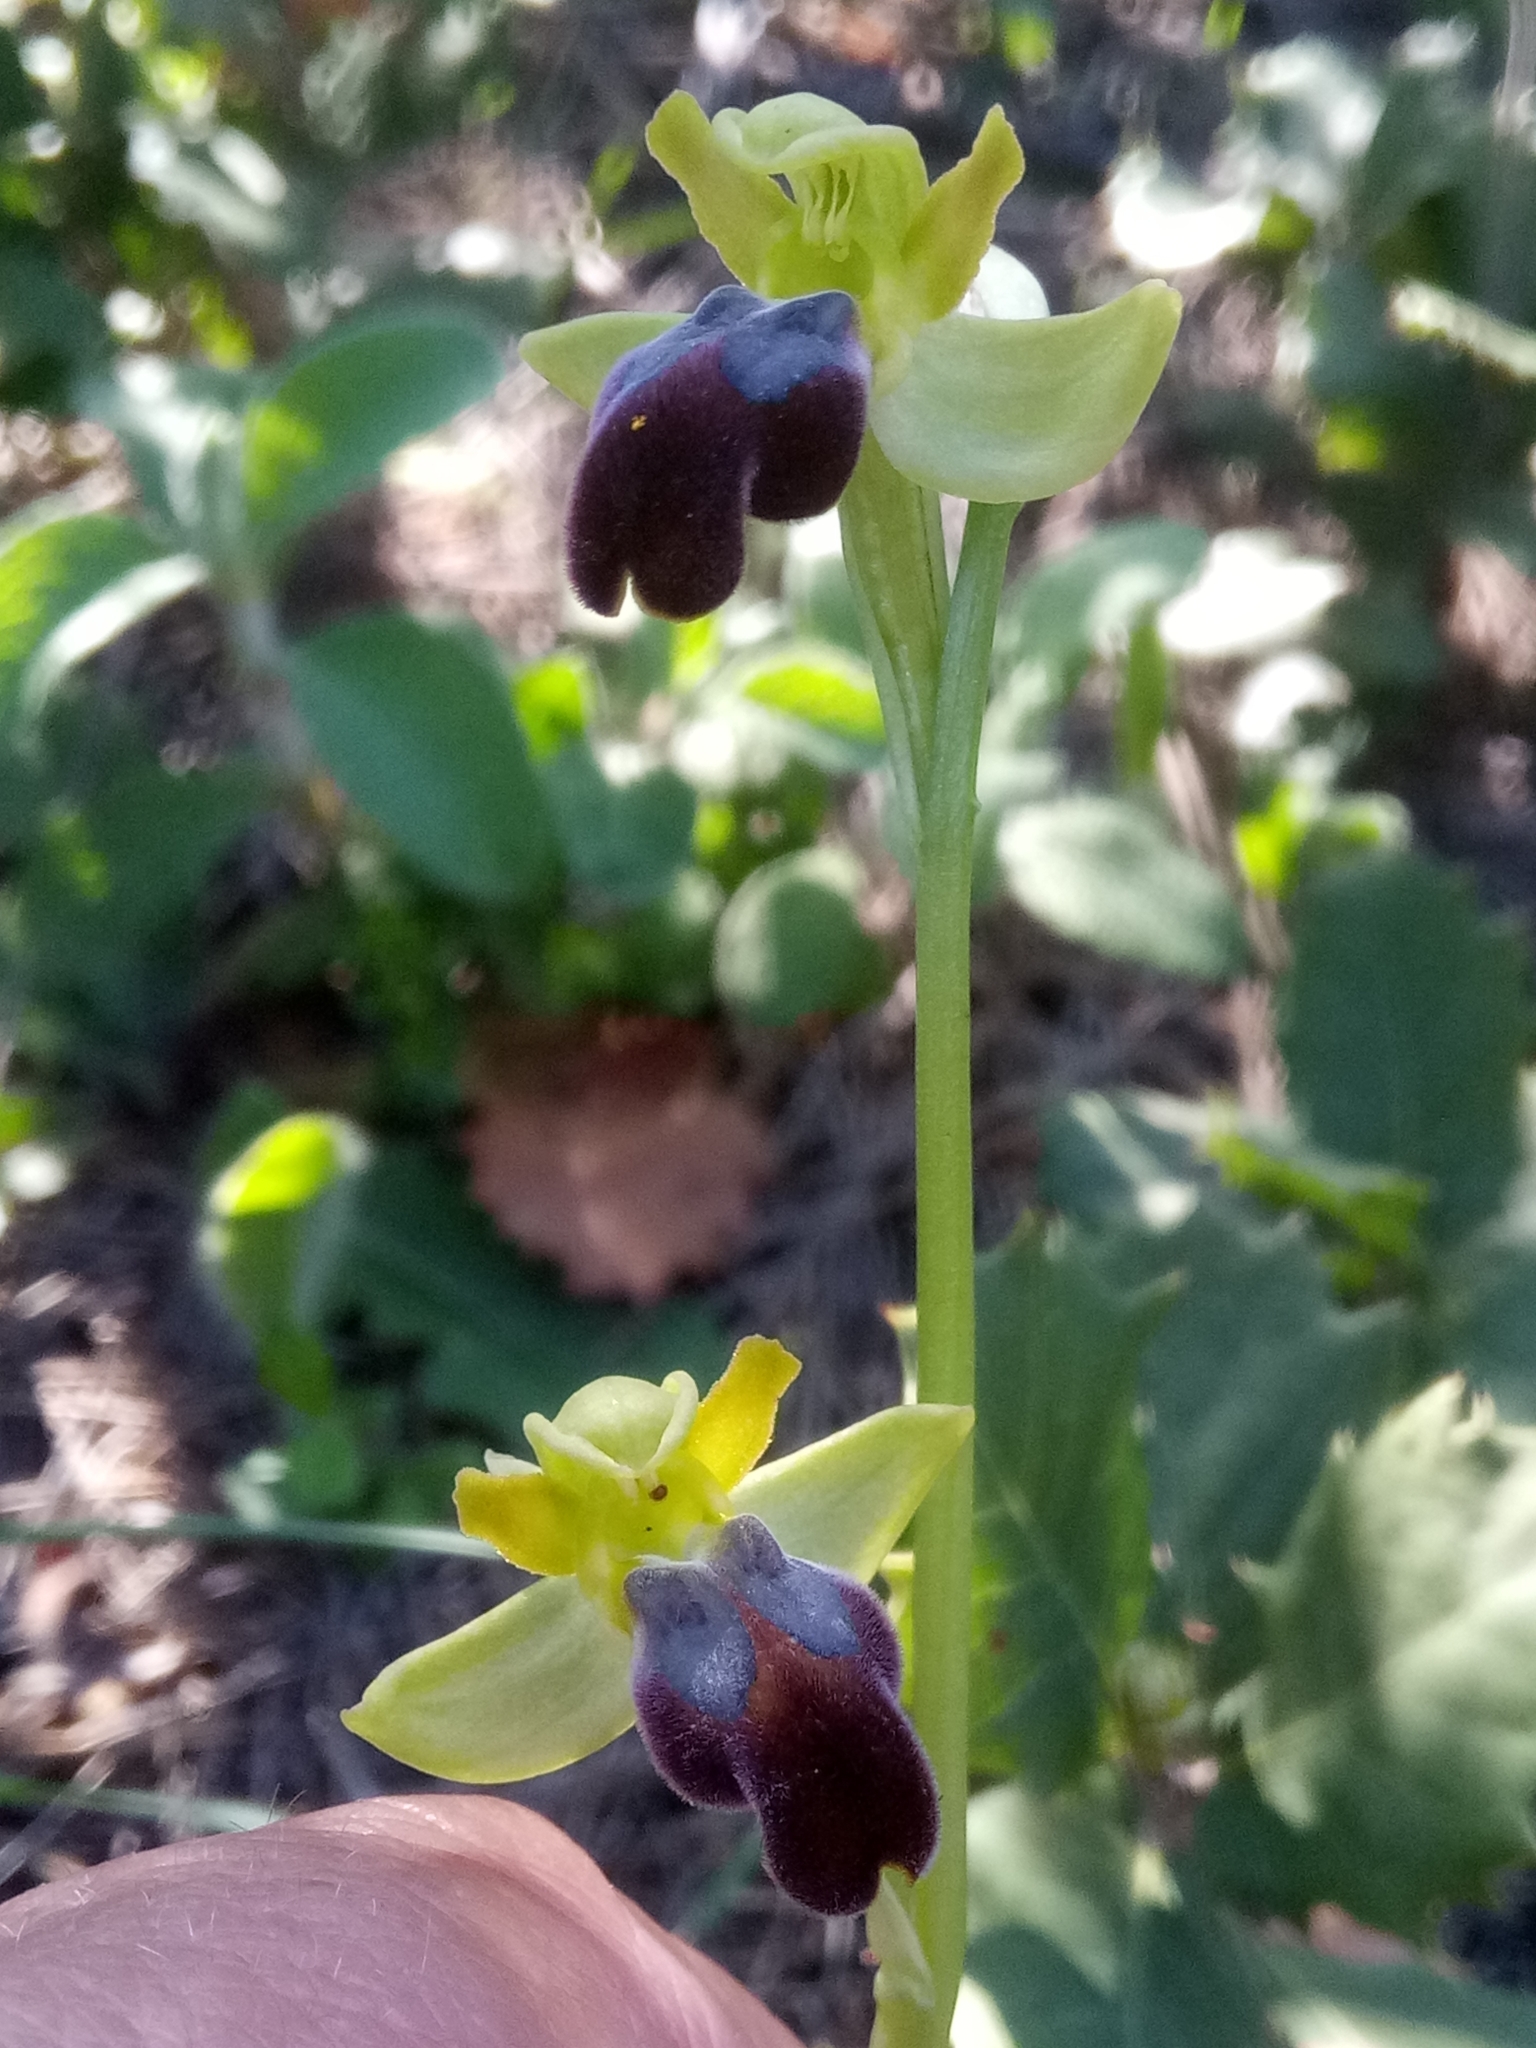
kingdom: Plantae
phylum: Tracheophyta
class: Liliopsida
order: Asparagales
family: Orchidaceae
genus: Ophrys
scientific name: Ophrys fusca
